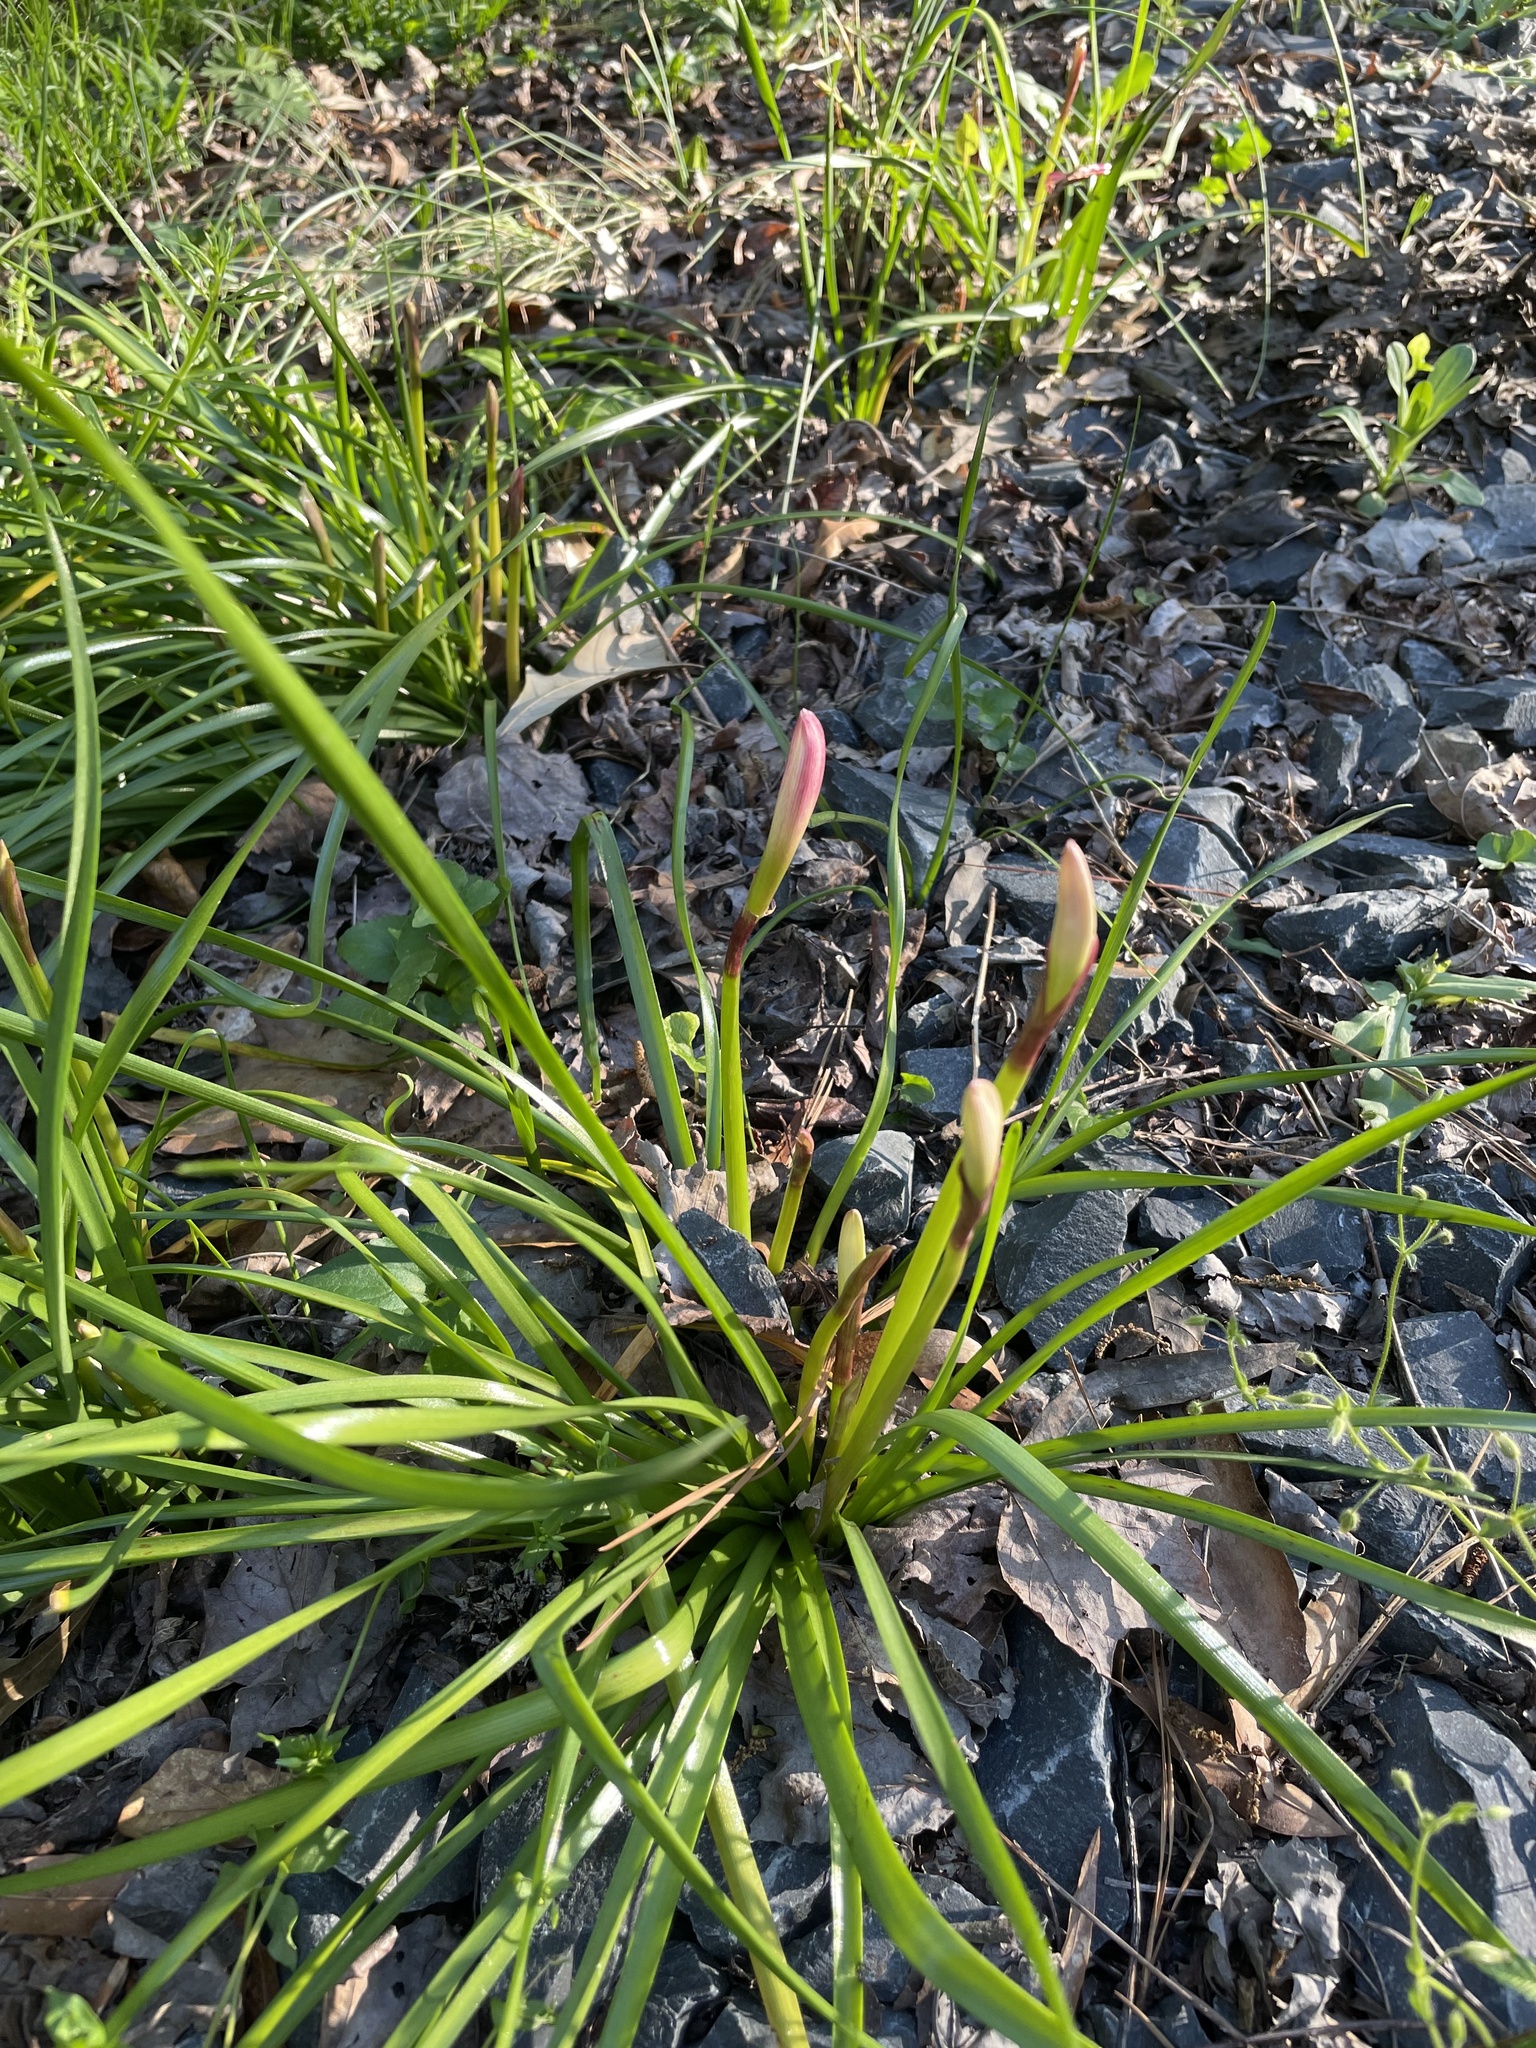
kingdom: Plantae
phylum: Tracheophyta
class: Liliopsida
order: Asparagales
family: Amaryllidaceae
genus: Zephyranthes
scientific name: Zephyranthes atamasco
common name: Atamasco lily
